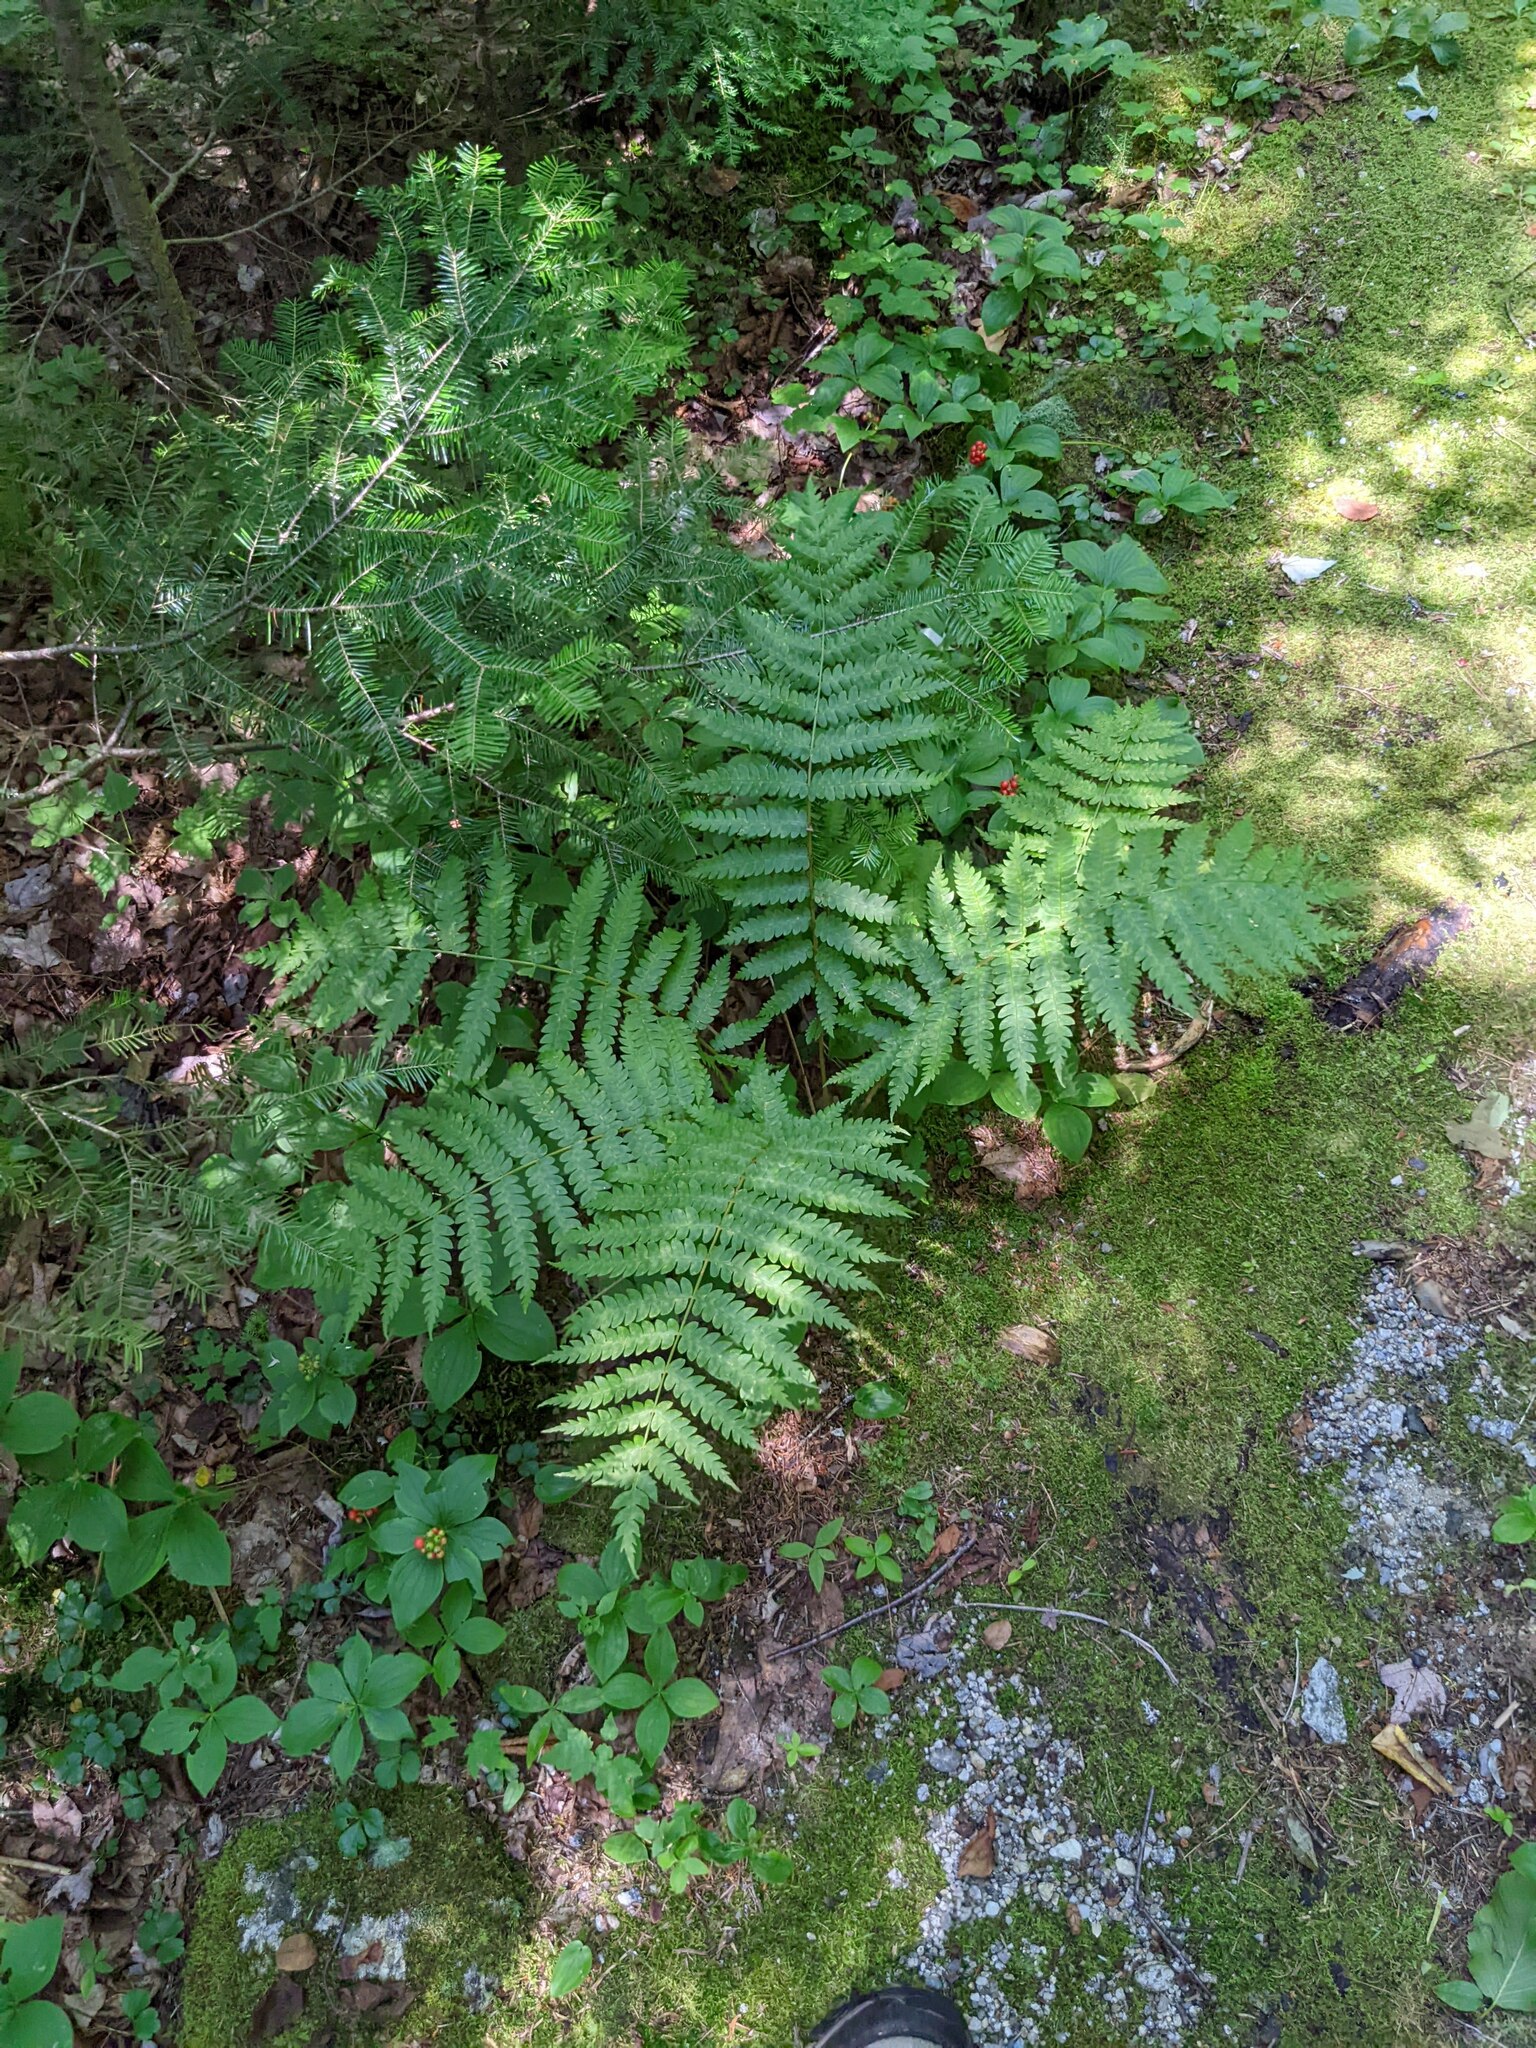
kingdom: Plantae
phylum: Tracheophyta
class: Polypodiopsida
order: Osmundales
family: Osmundaceae
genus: Osmundastrum
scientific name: Osmundastrum cinnamomeum
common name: Cinnamon fern
